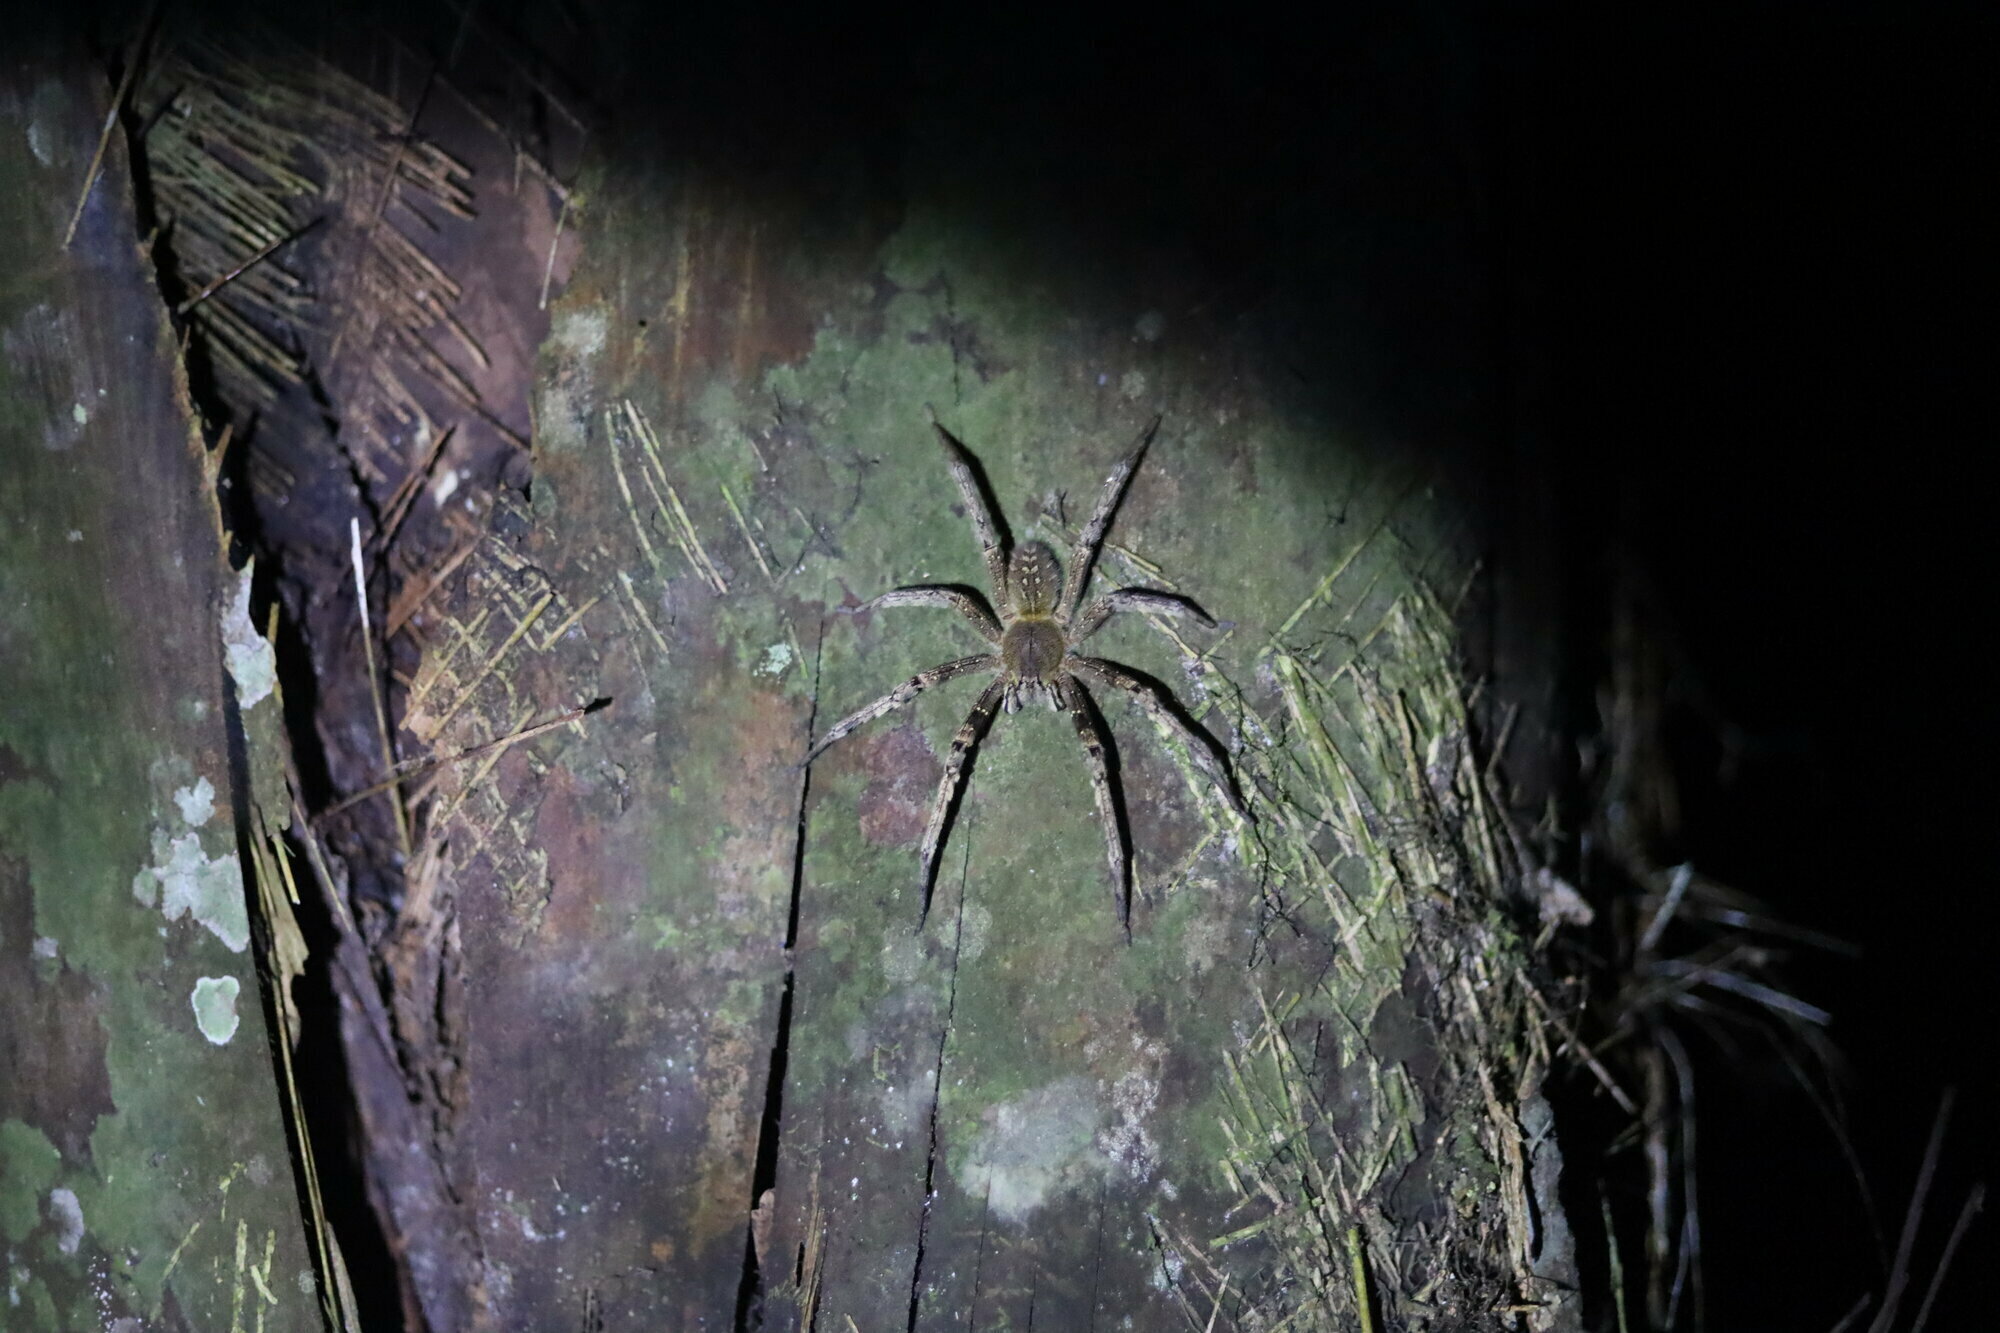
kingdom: Animalia
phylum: Arthropoda
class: Arachnida
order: Araneae
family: Ctenidae
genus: Phoneutria
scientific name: Phoneutria fera
